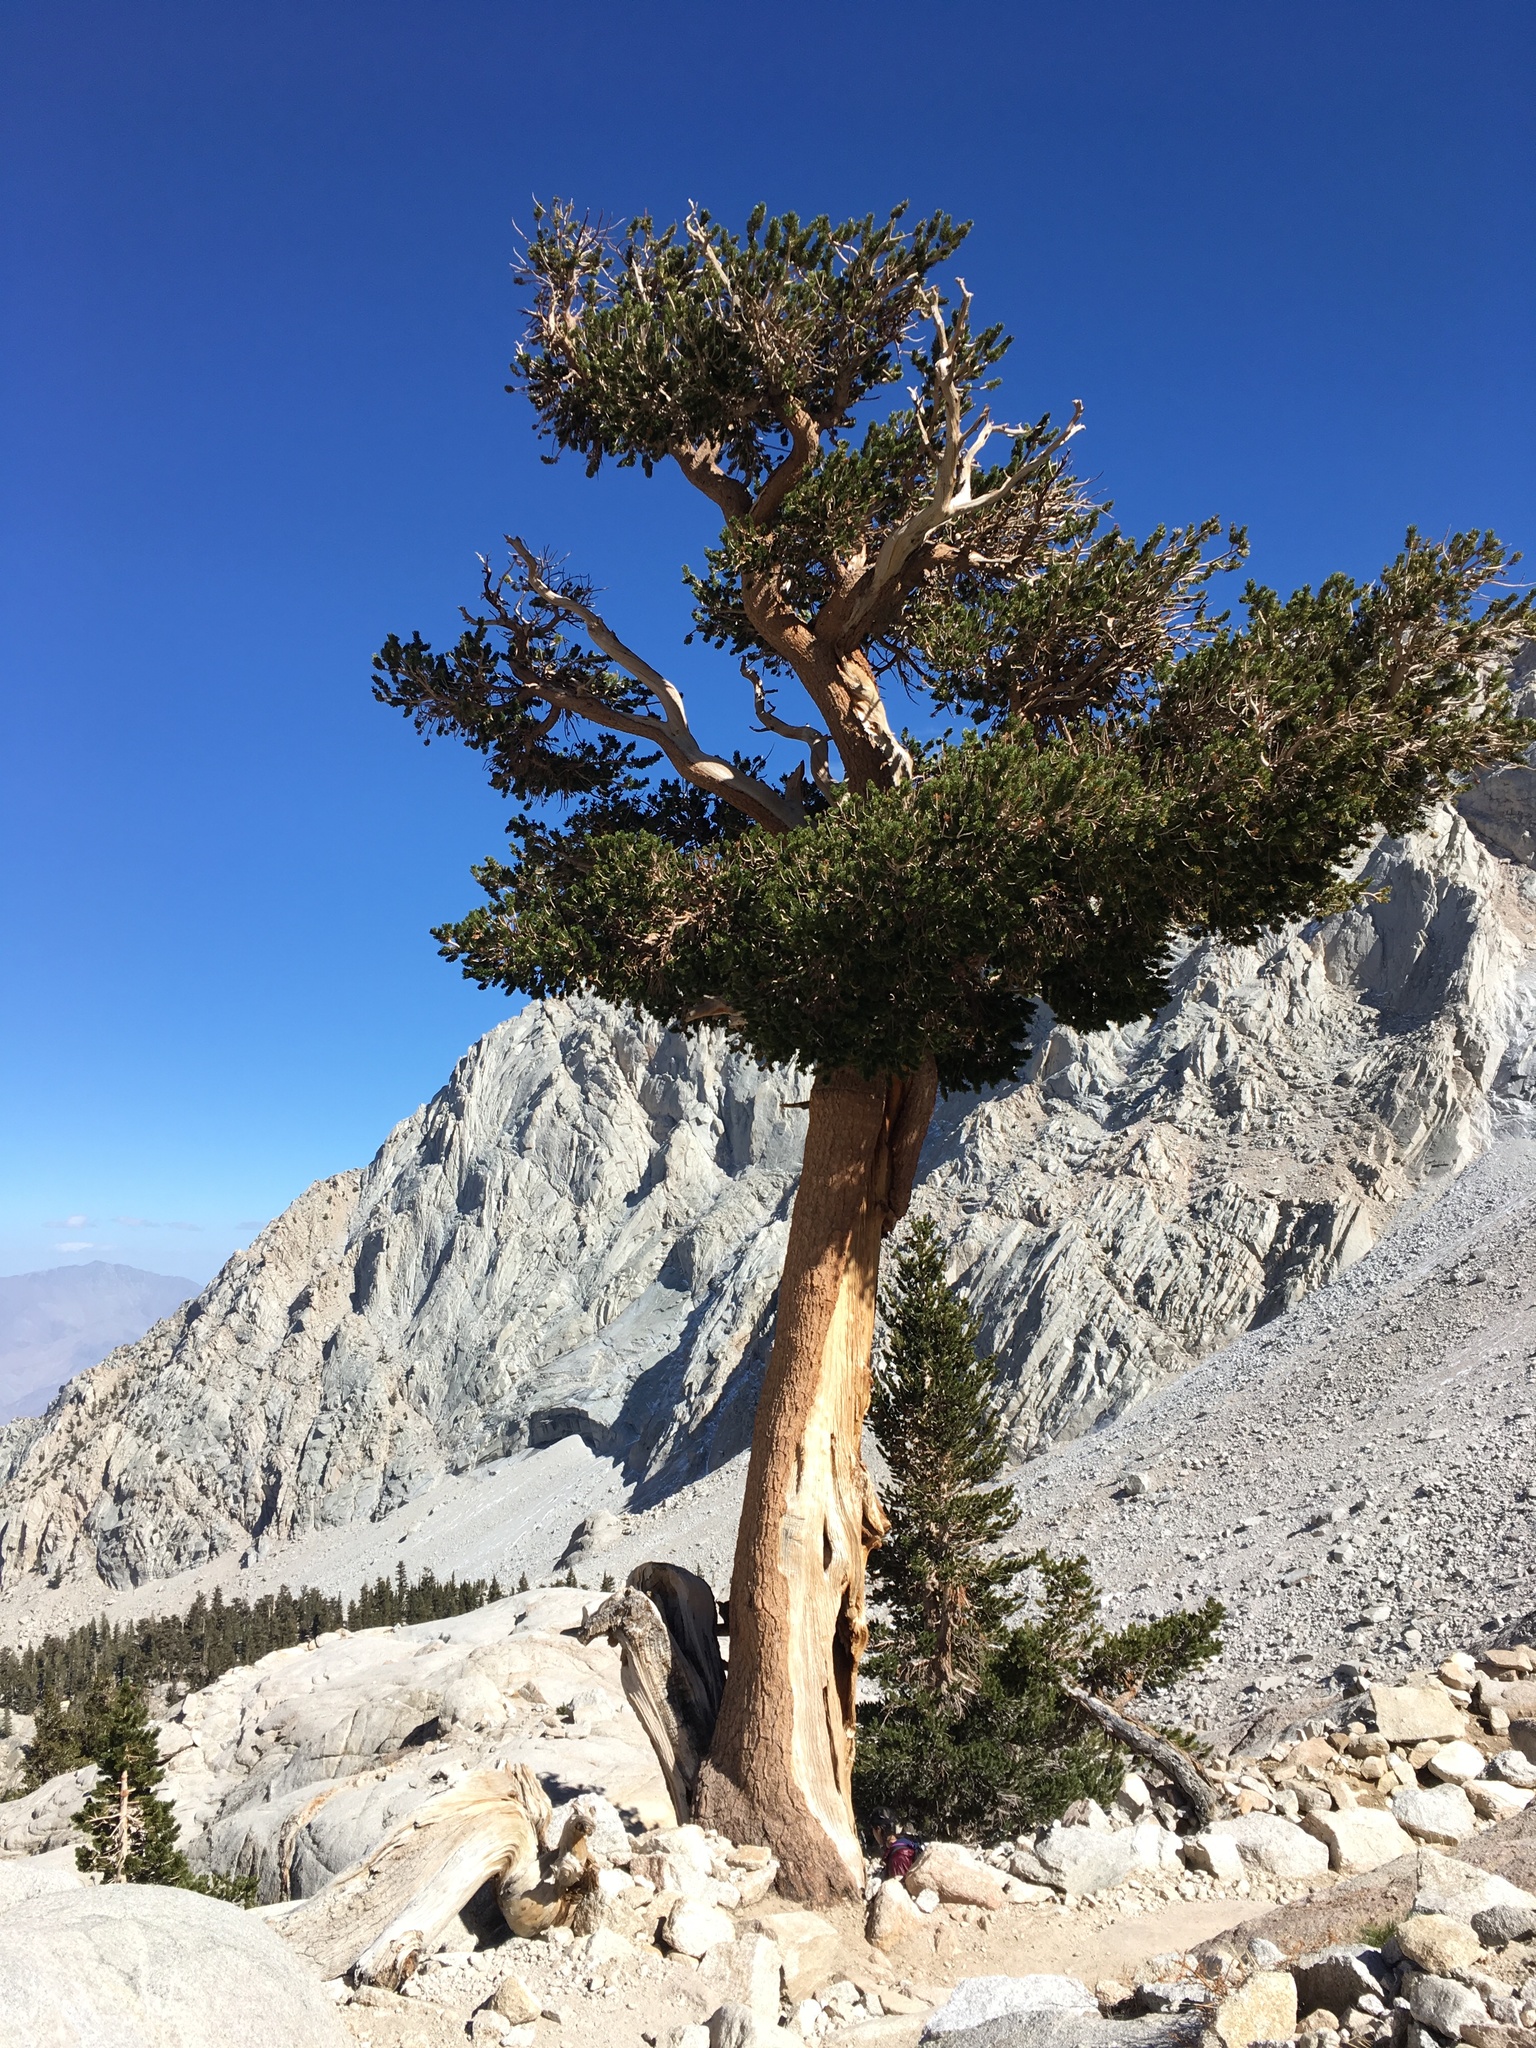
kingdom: Plantae
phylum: Tracheophyta
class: Pinopsida
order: Pinales
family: Pinaceae
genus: Pinus
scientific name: Pinus balfouriana
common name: Foxtail pine
